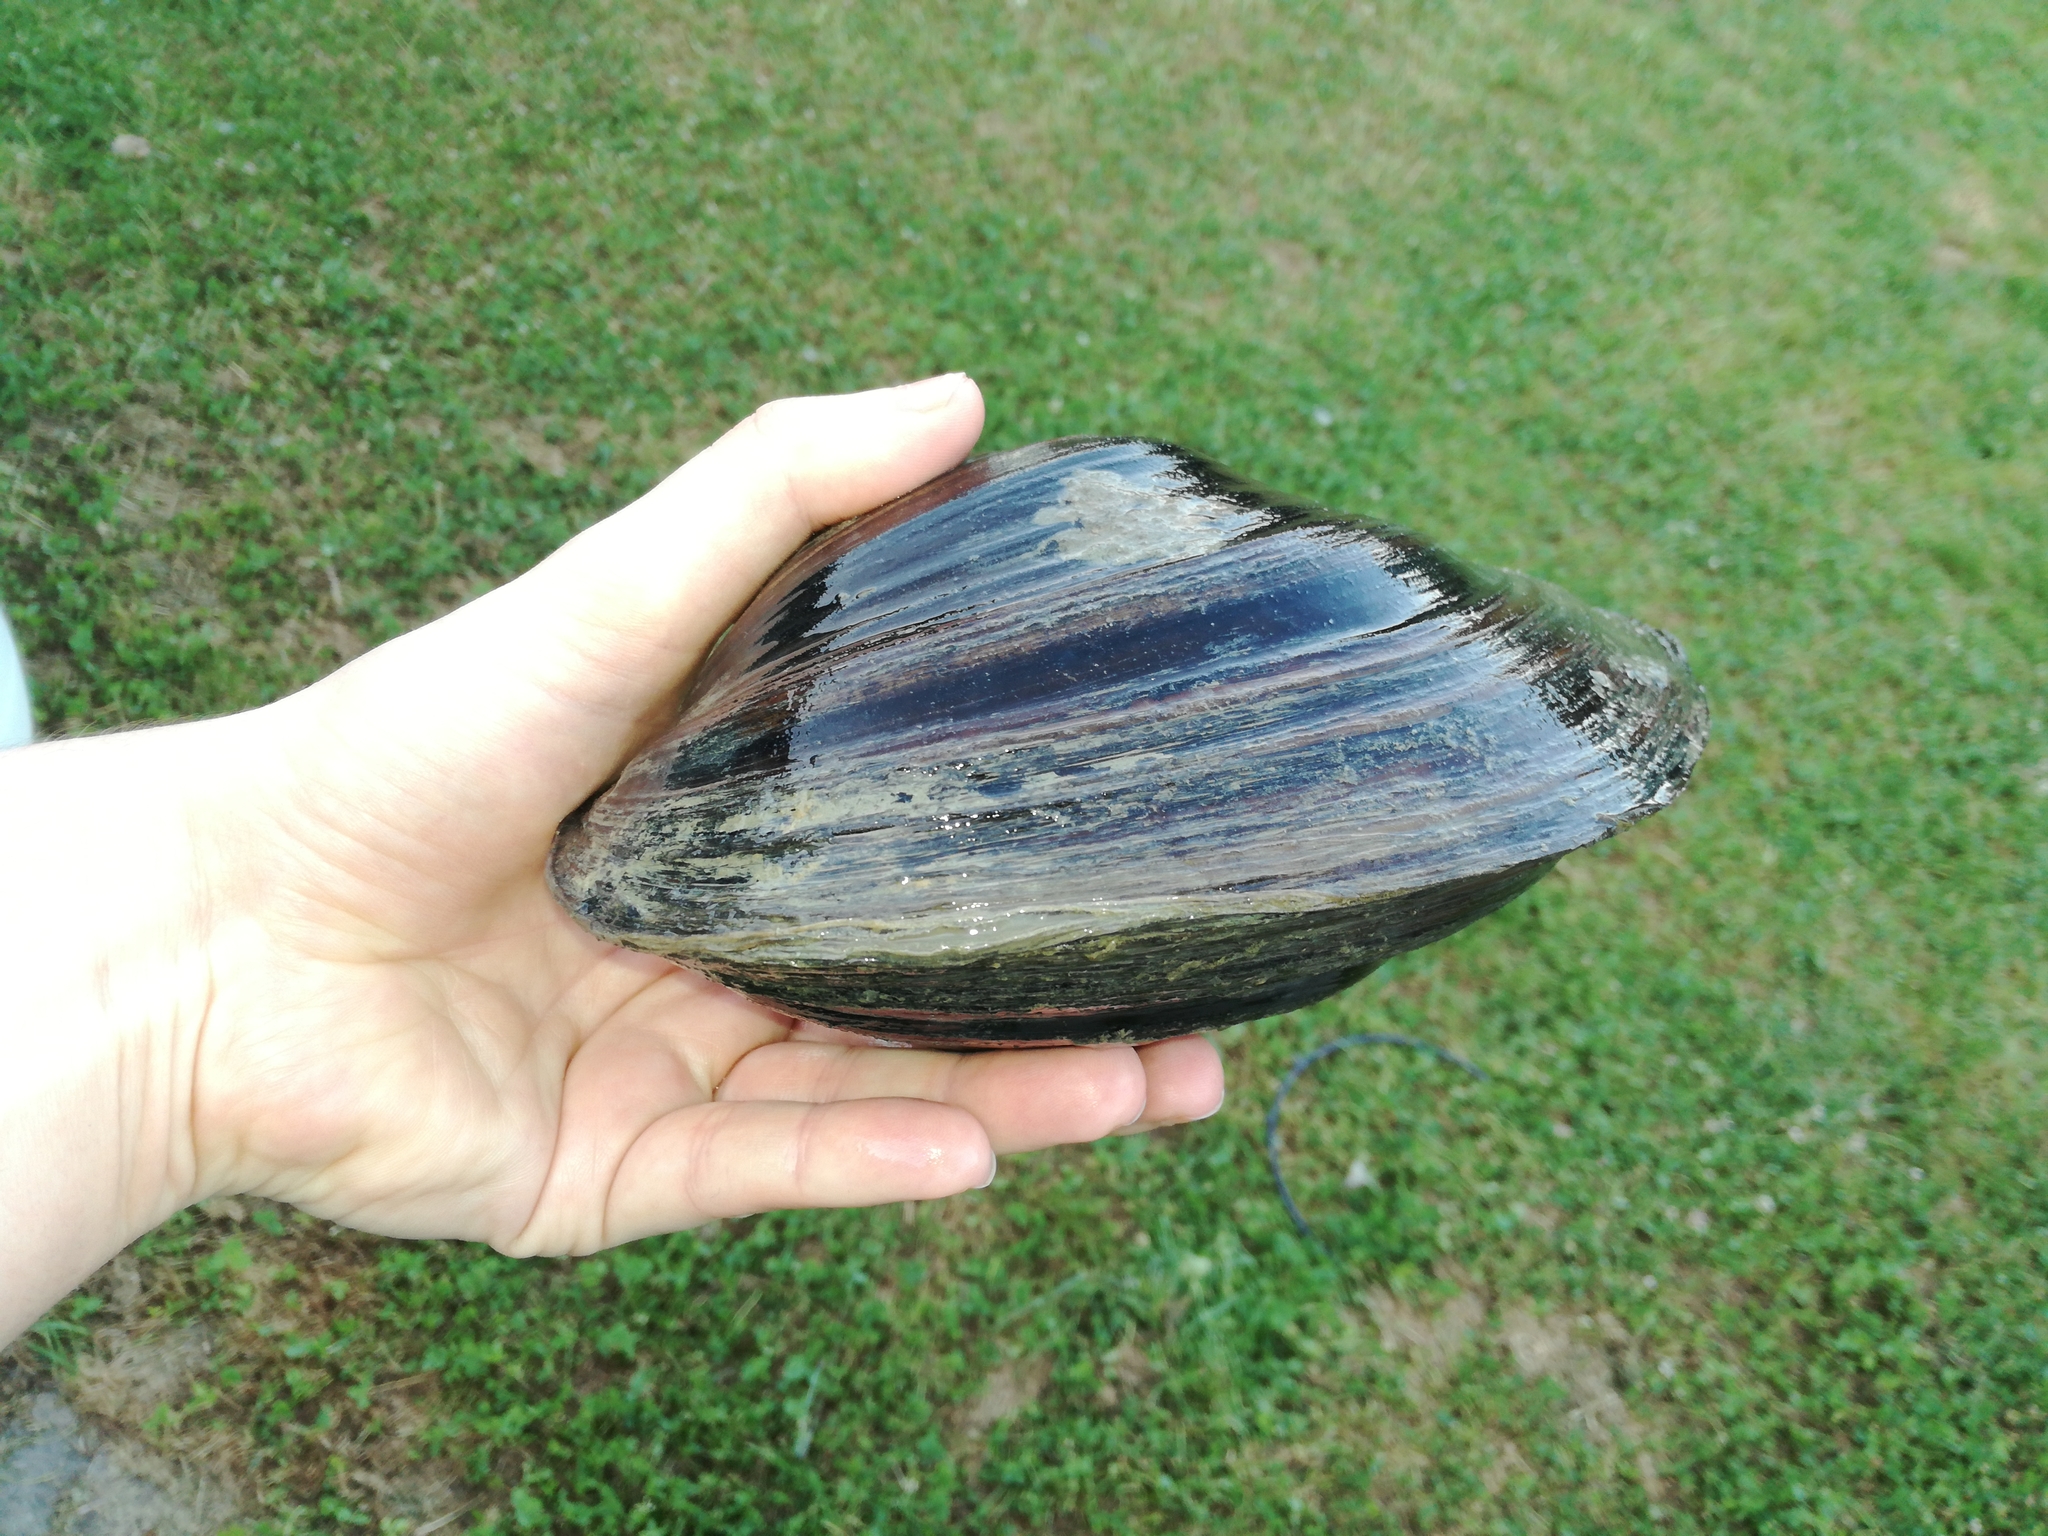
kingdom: Animalia
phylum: Mollusca
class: Bivalvia
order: Unionida
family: Unionidae
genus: Sinanodonta
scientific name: Sinanodonta woodiana
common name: Chinese pond mussel
